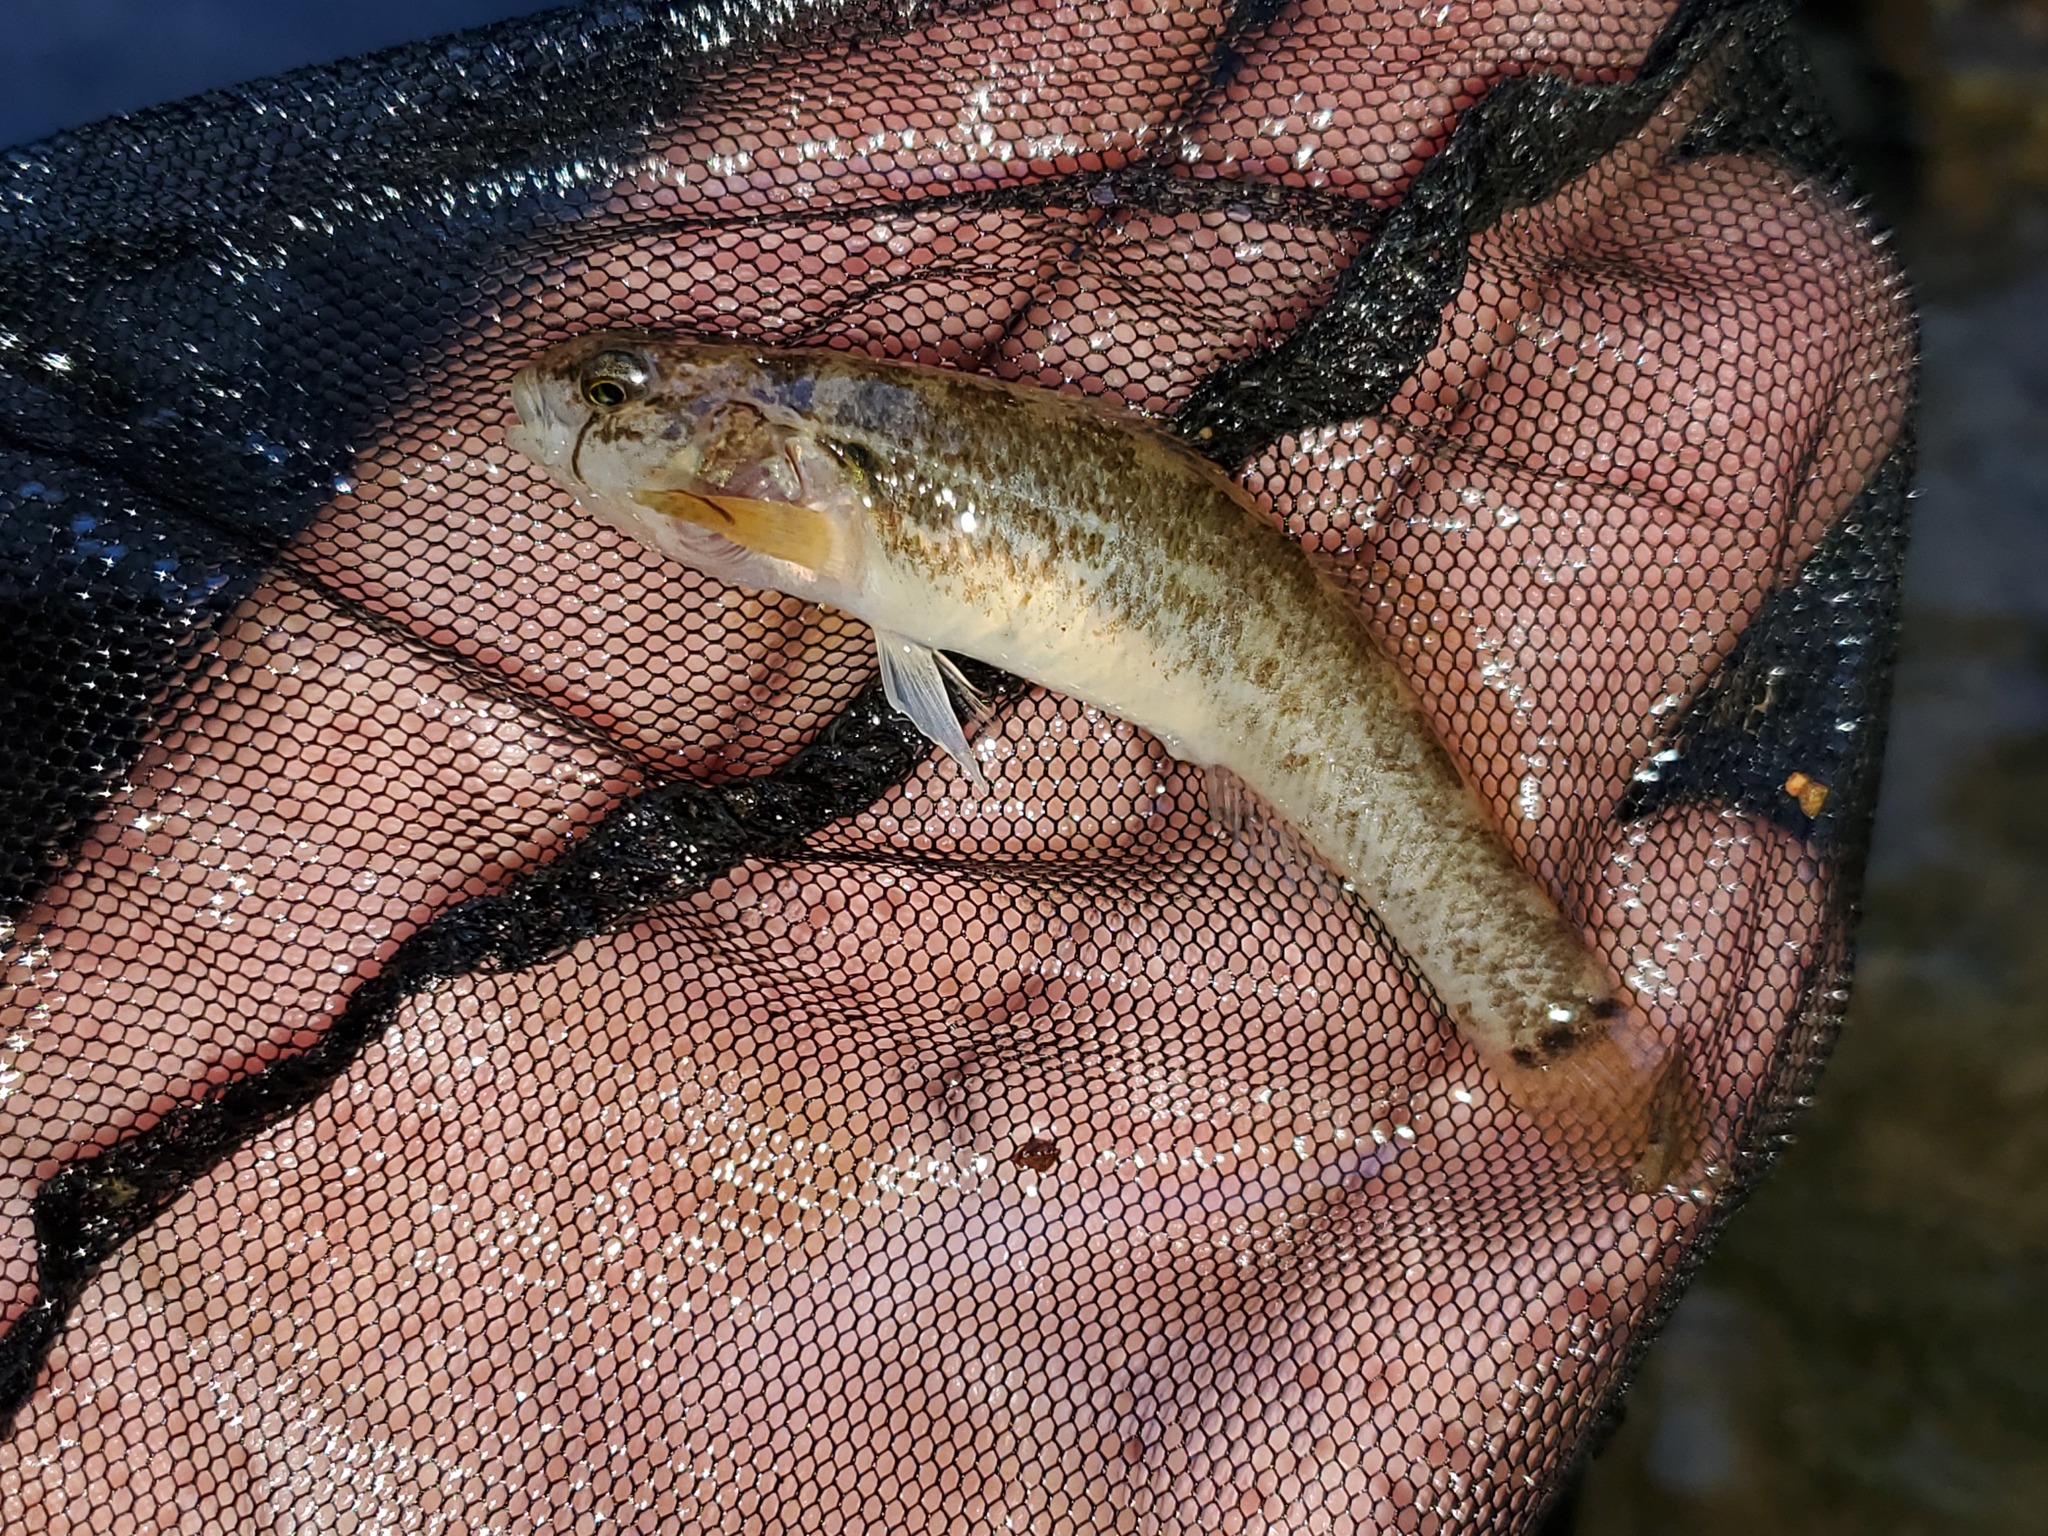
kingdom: Animalia
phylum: Chordata
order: Perciformes
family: Percidae
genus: Etheostoma
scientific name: Etheostoma crossopterum
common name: Fringed darter
